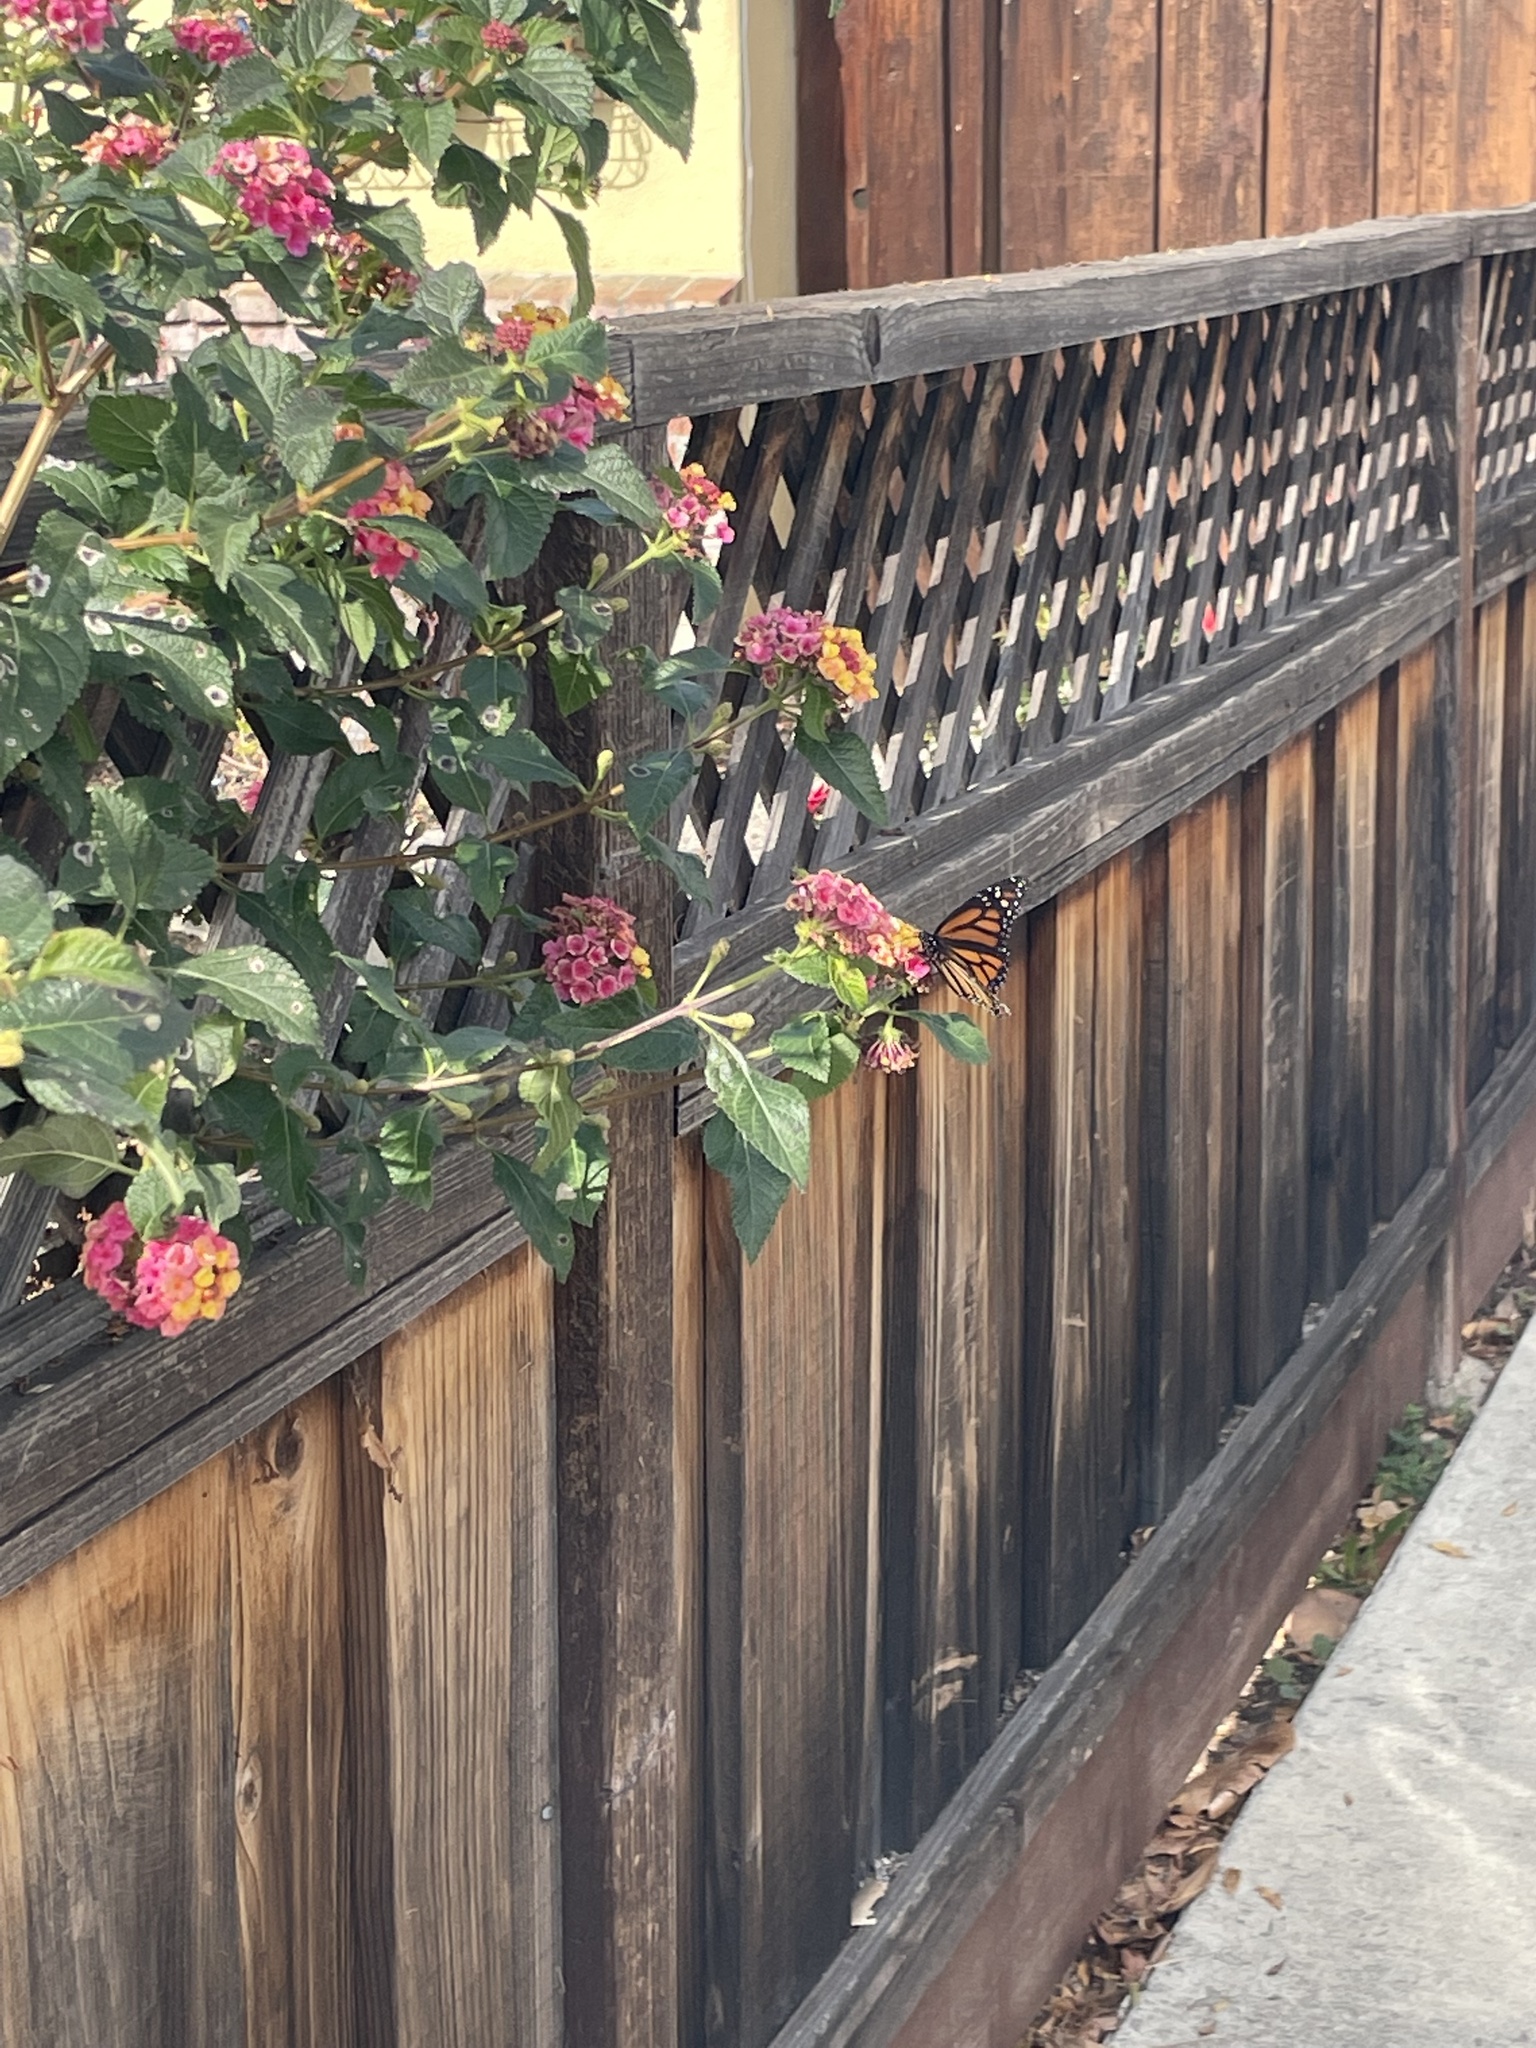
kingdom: Animalia
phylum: Arthropoda
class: Insecta
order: Lepidoptera
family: Nymphalidae
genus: Danaus
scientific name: Danaus plexippus
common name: Monarch
